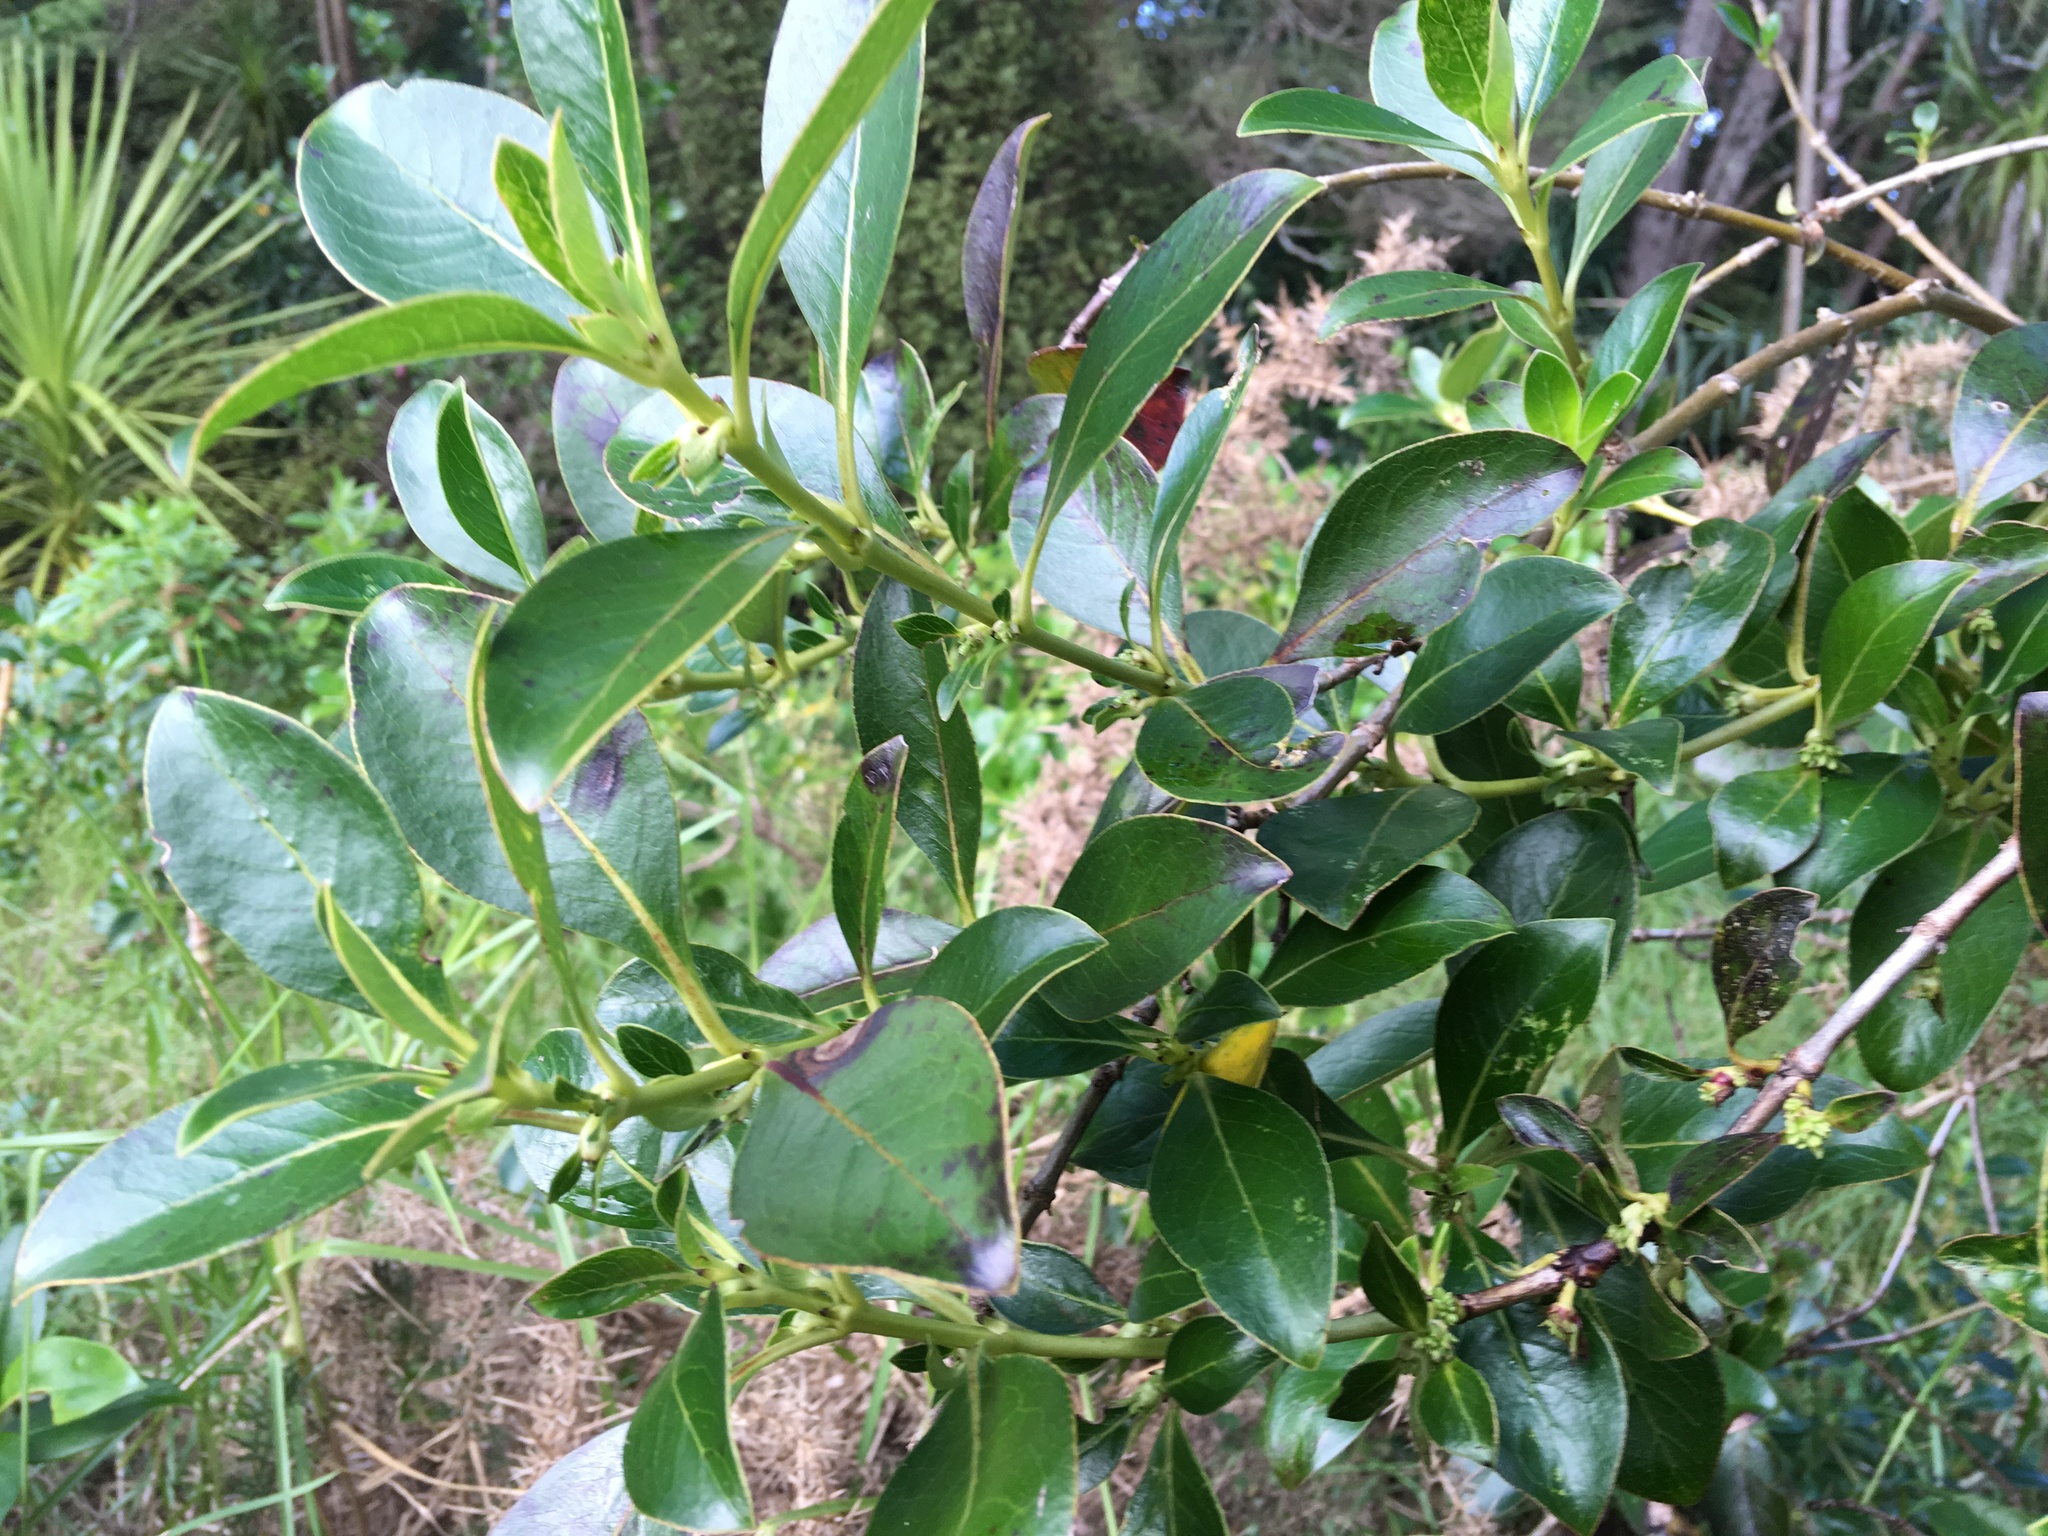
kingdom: Plantae
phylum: Tracheophyta
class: Magnoliopsida
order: Gentianales
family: Rubiaceae
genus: Coprosma
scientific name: Coprosma robusta
